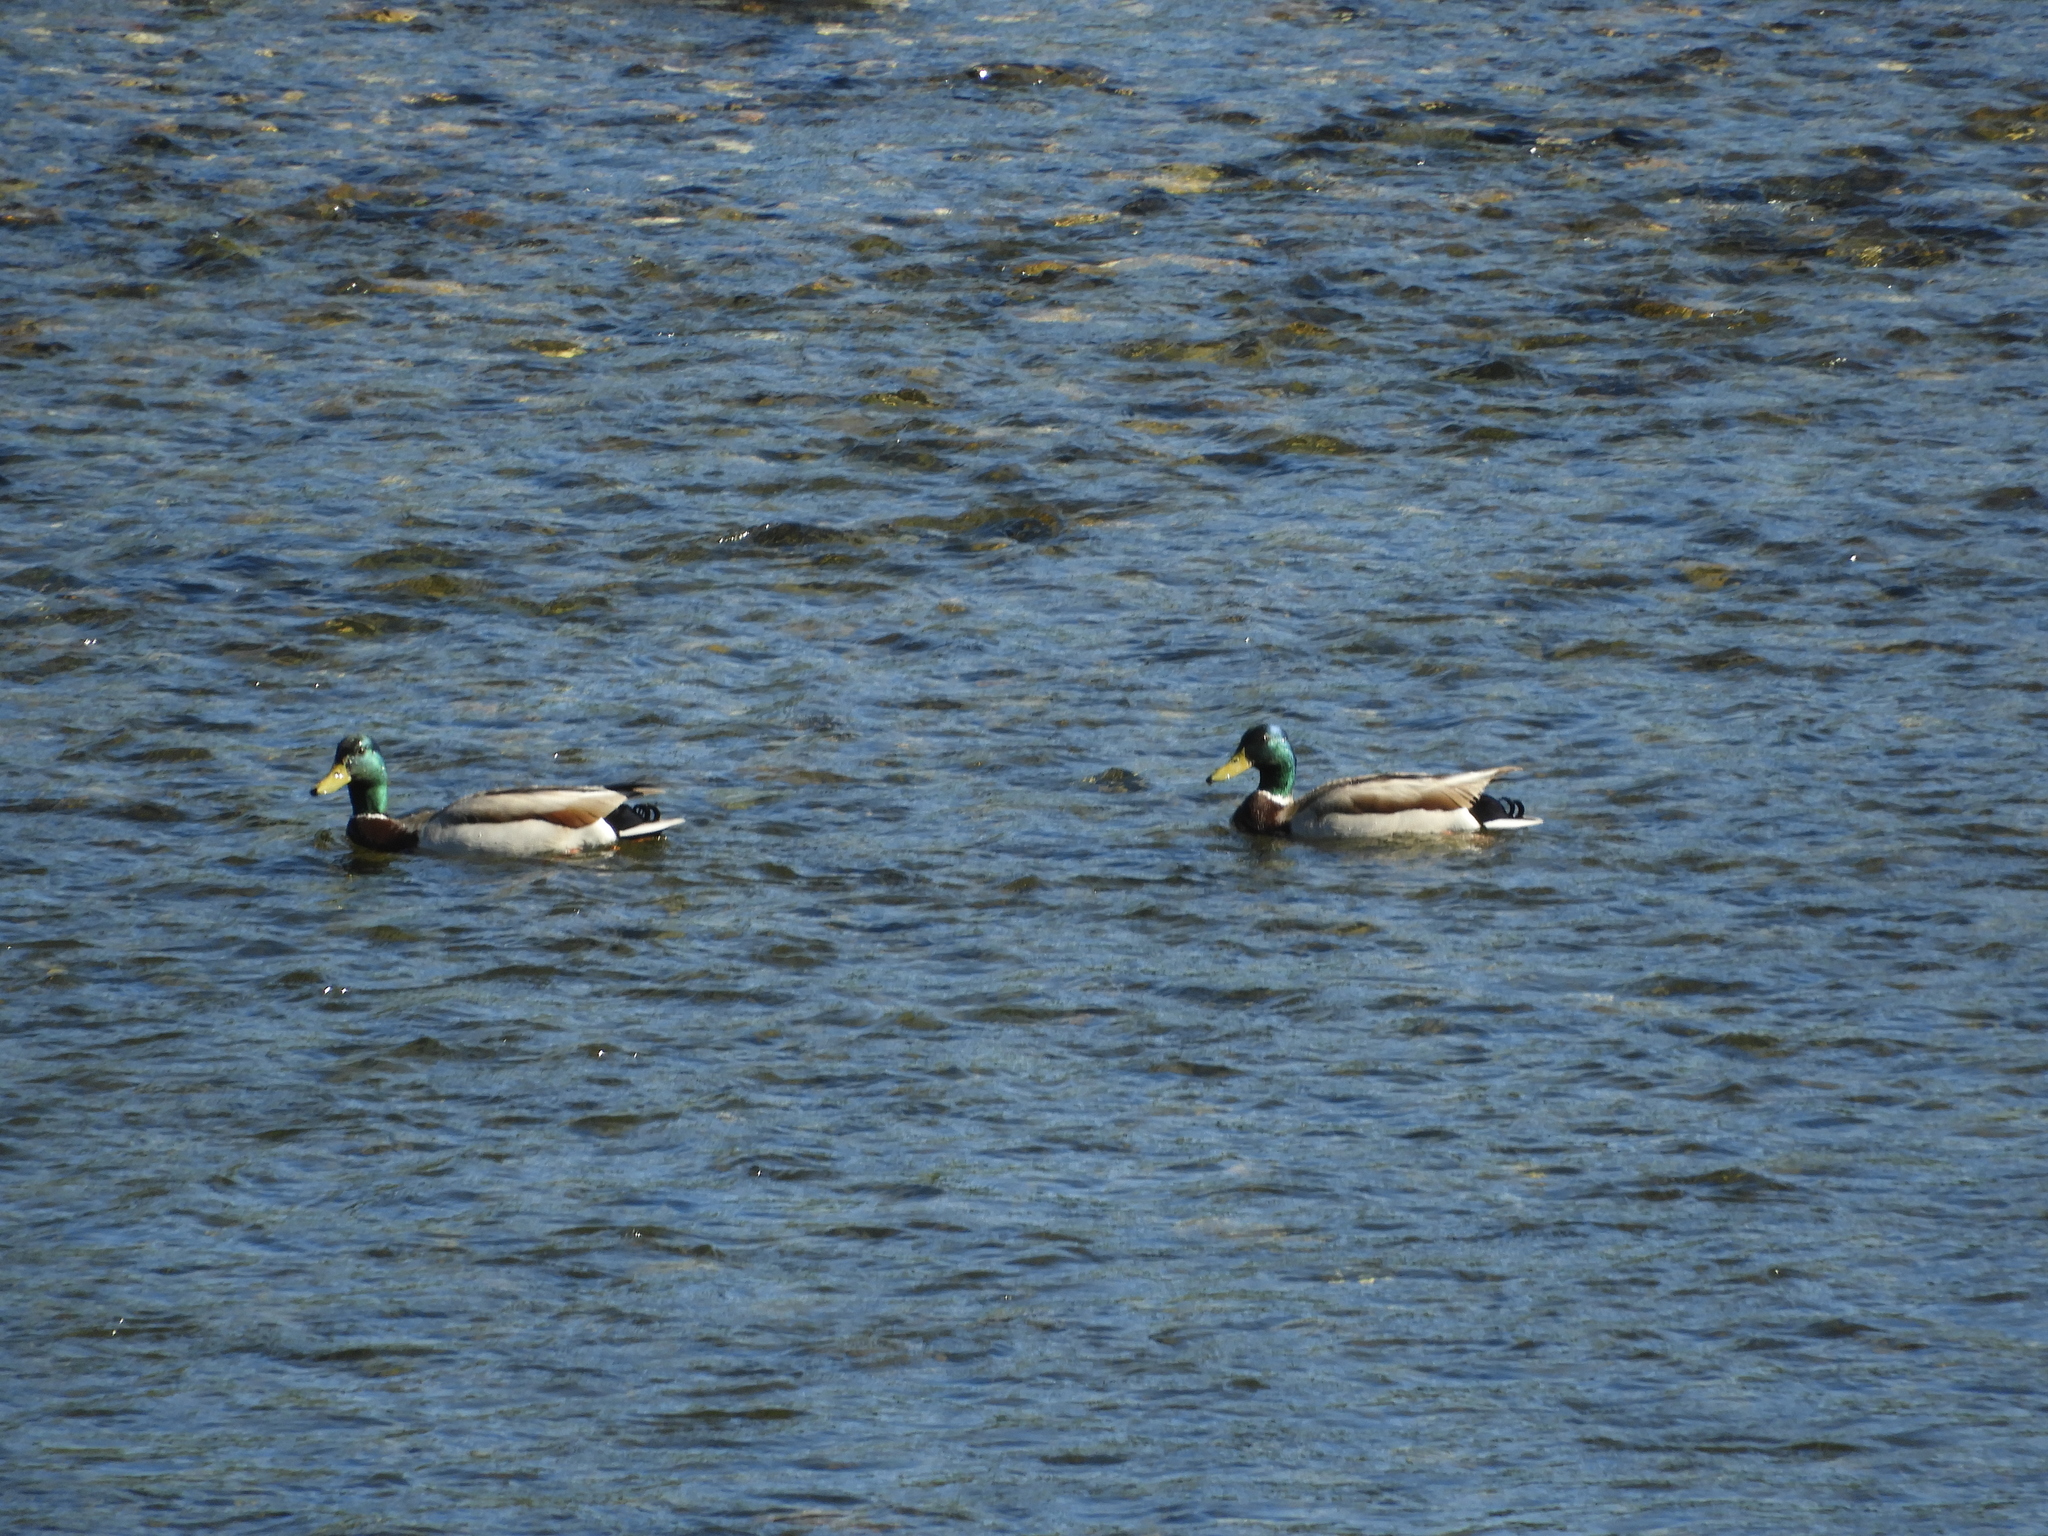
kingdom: Animalia
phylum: Chordata
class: Aves
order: Anseriformes
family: Anatidae
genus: Anas
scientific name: Anas platyrhynchos
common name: Mallard
